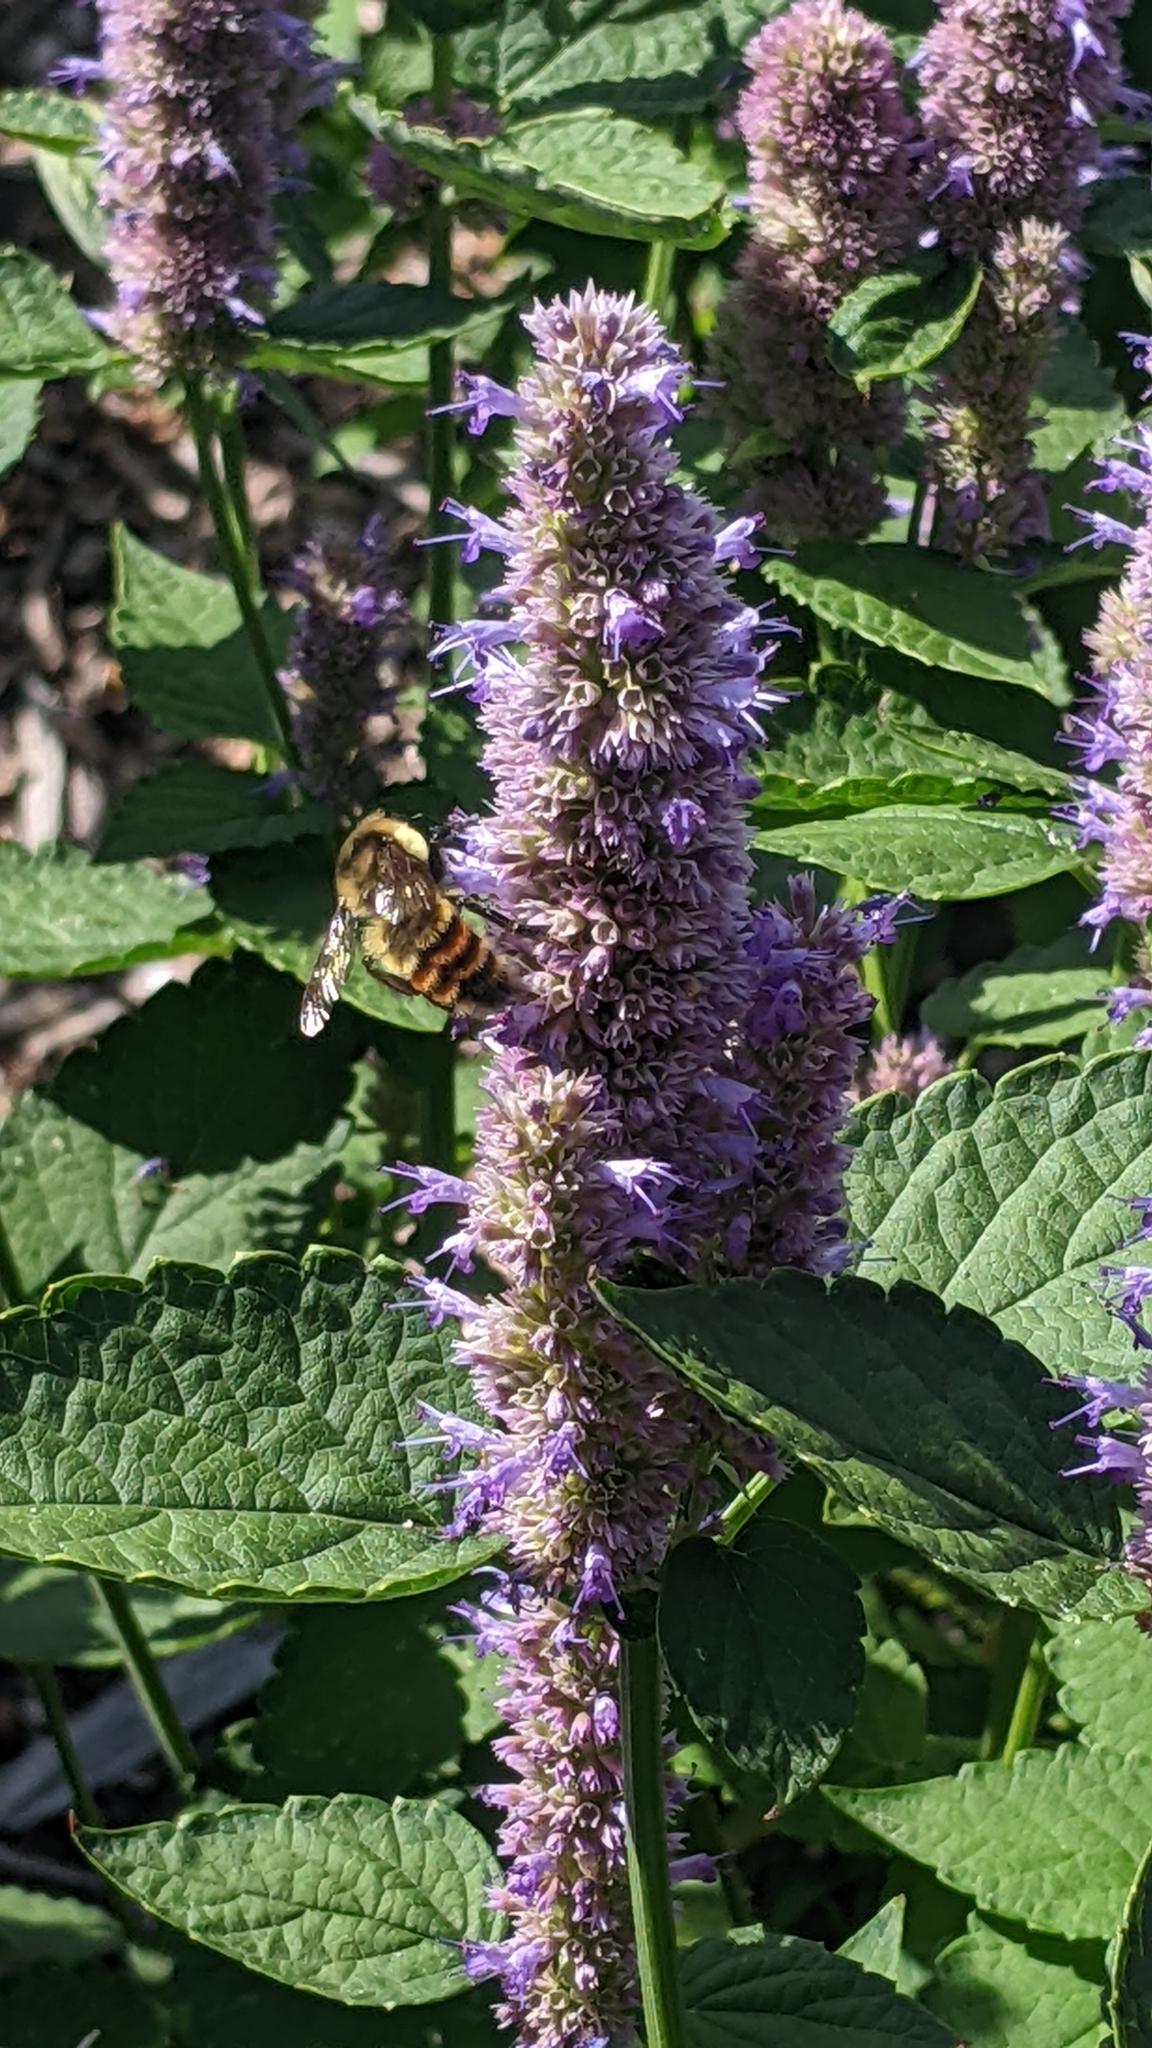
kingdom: Animalia
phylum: Arthropoda
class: Insecta
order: Hymenoptera
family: Apidae
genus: Bombus
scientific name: Bombus rufocinctus
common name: Red-belted bumble bee
